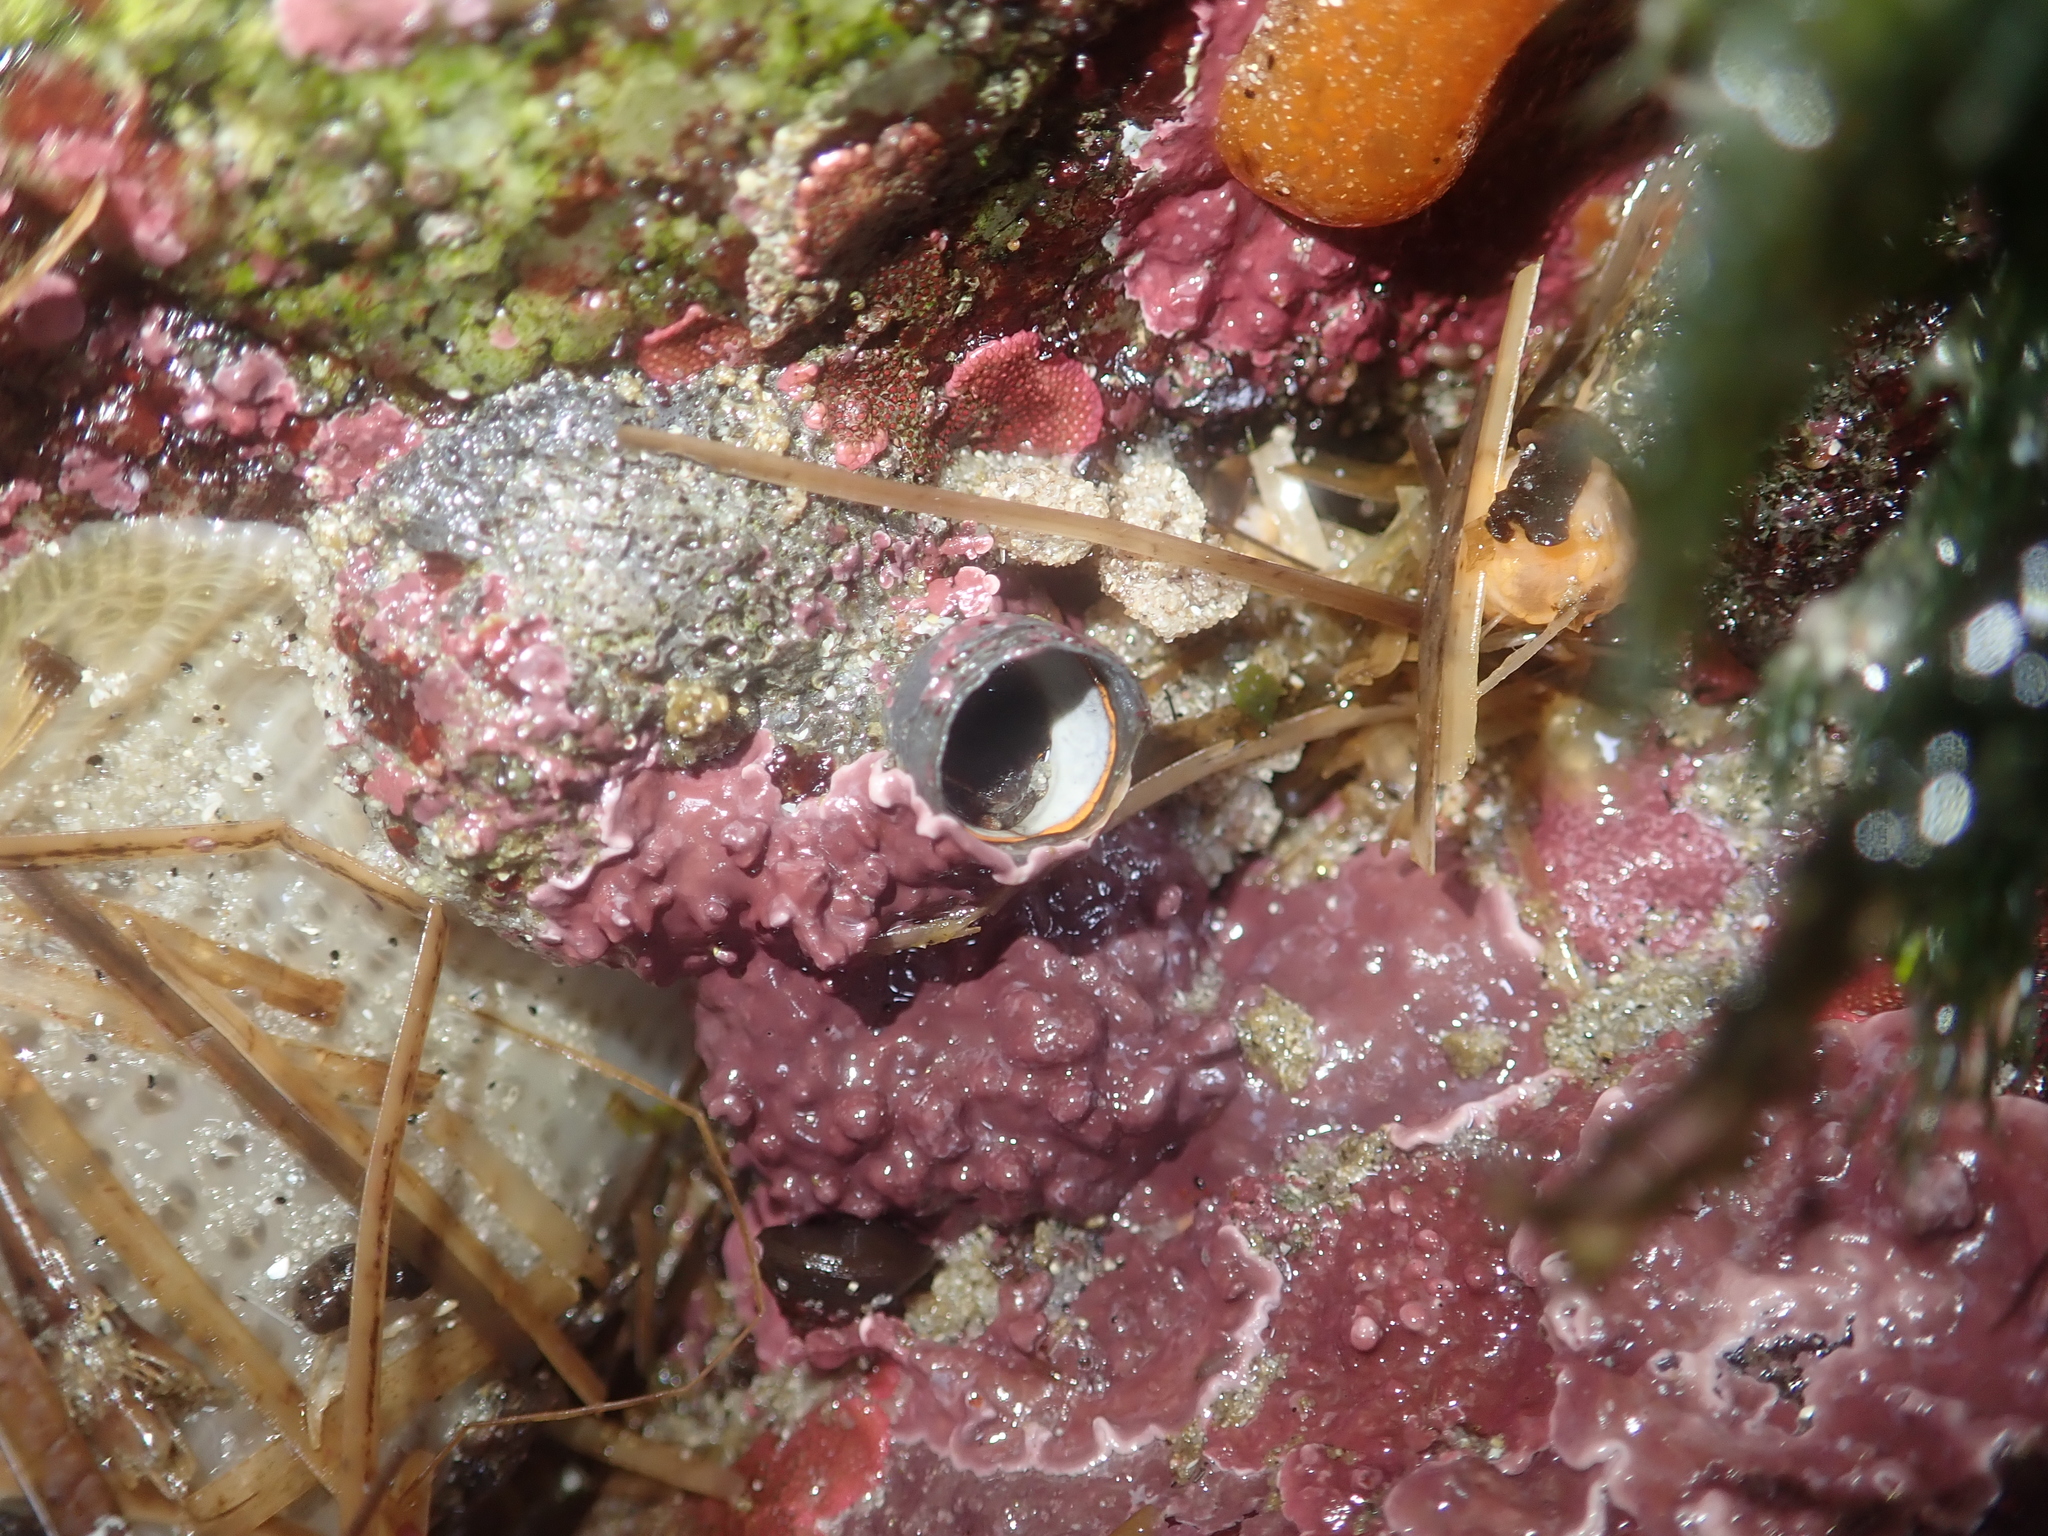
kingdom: Animalia
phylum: Mollusca
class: Gastropoda
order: Littorinimorpha
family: Vermetidae
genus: Thylacodes
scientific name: Thylacodes squamigerus
